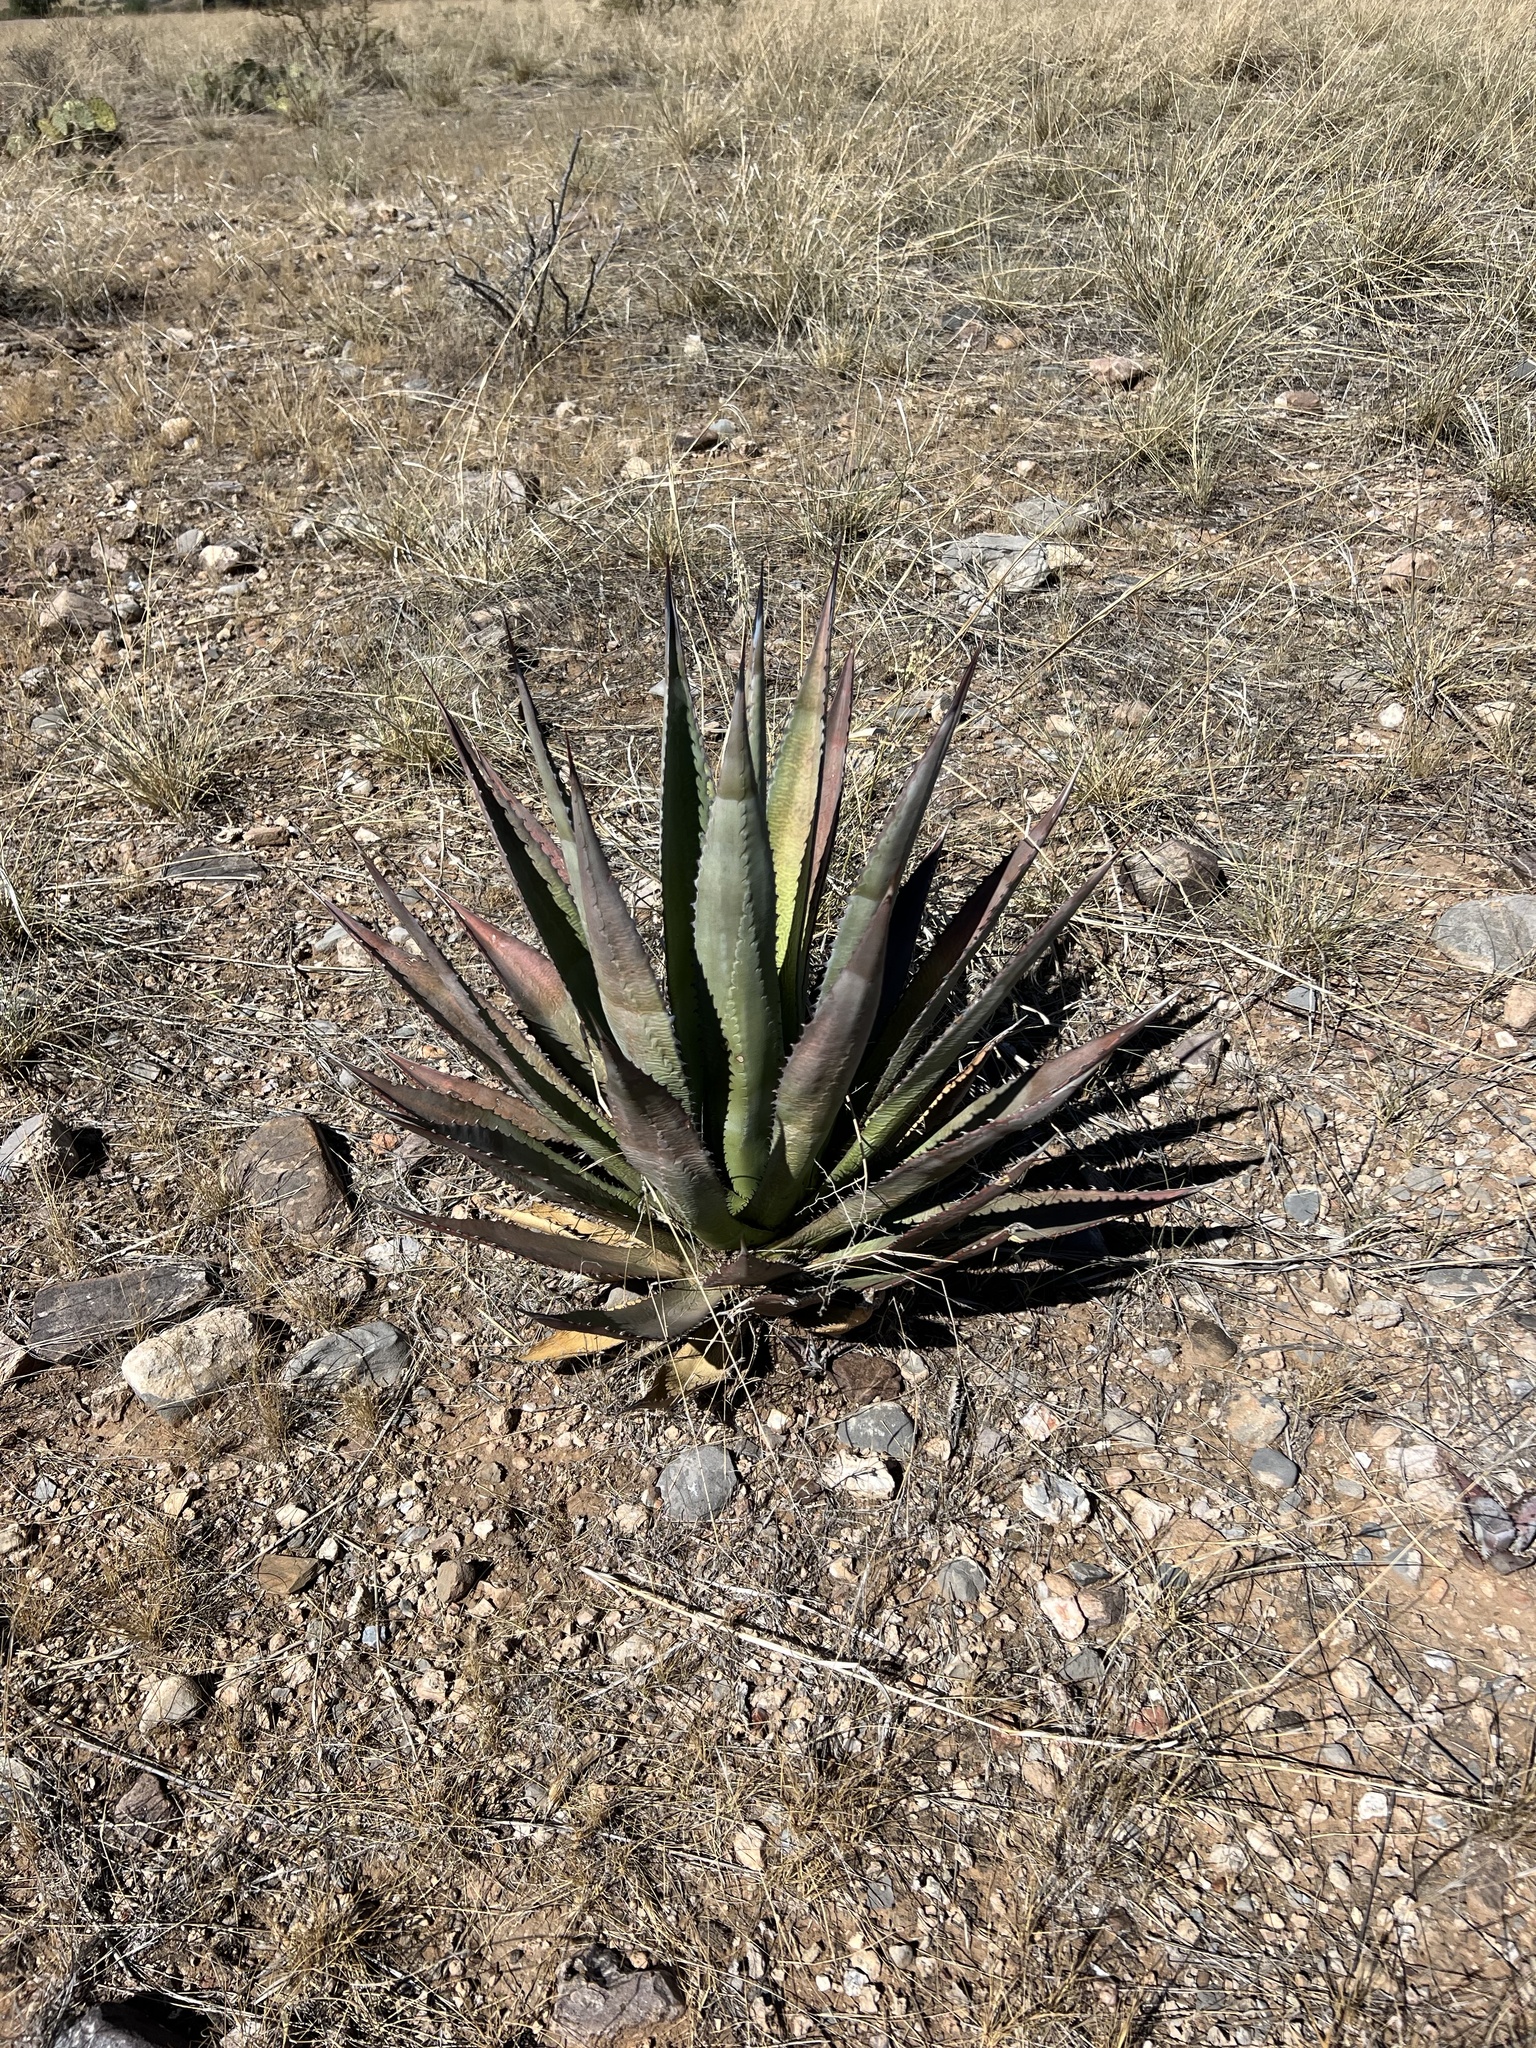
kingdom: Plantae
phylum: Tracheophyta
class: Liliopsida
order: Asparagales
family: Asparagaceae
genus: Agave
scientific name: Agave palmeri
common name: Palmer agave
